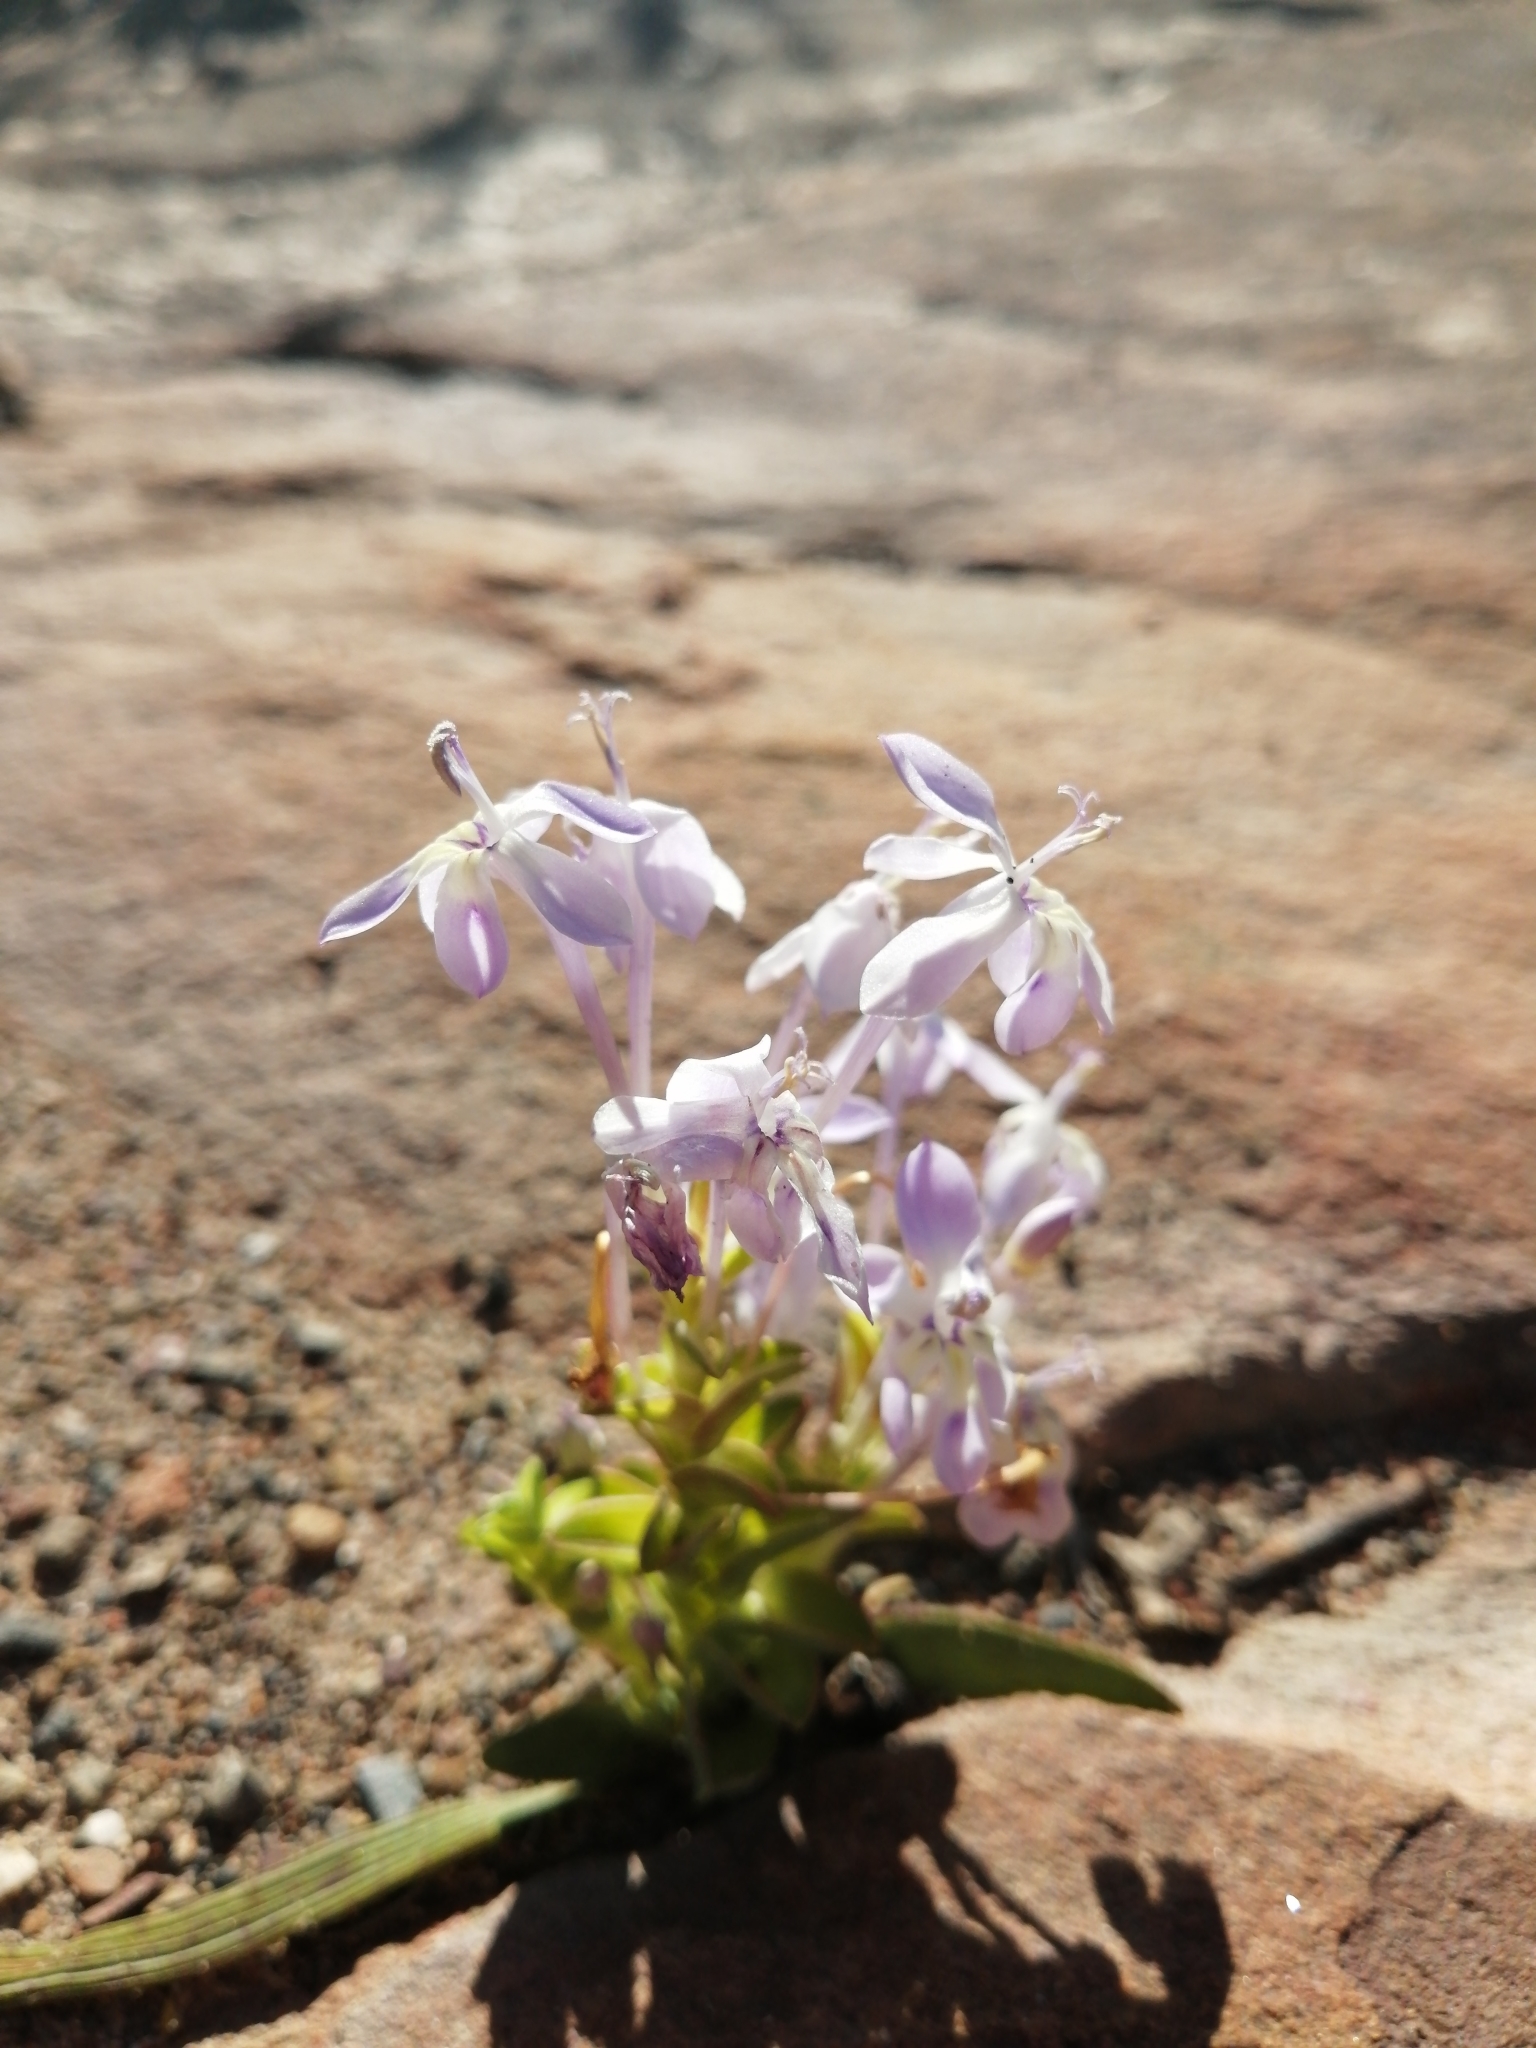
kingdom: Plantae
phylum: Tracheophyta
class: Liliopsida
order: Asparagales
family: Iridaceae
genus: Lapeirousia
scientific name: Lapeirousia pyramidalis
